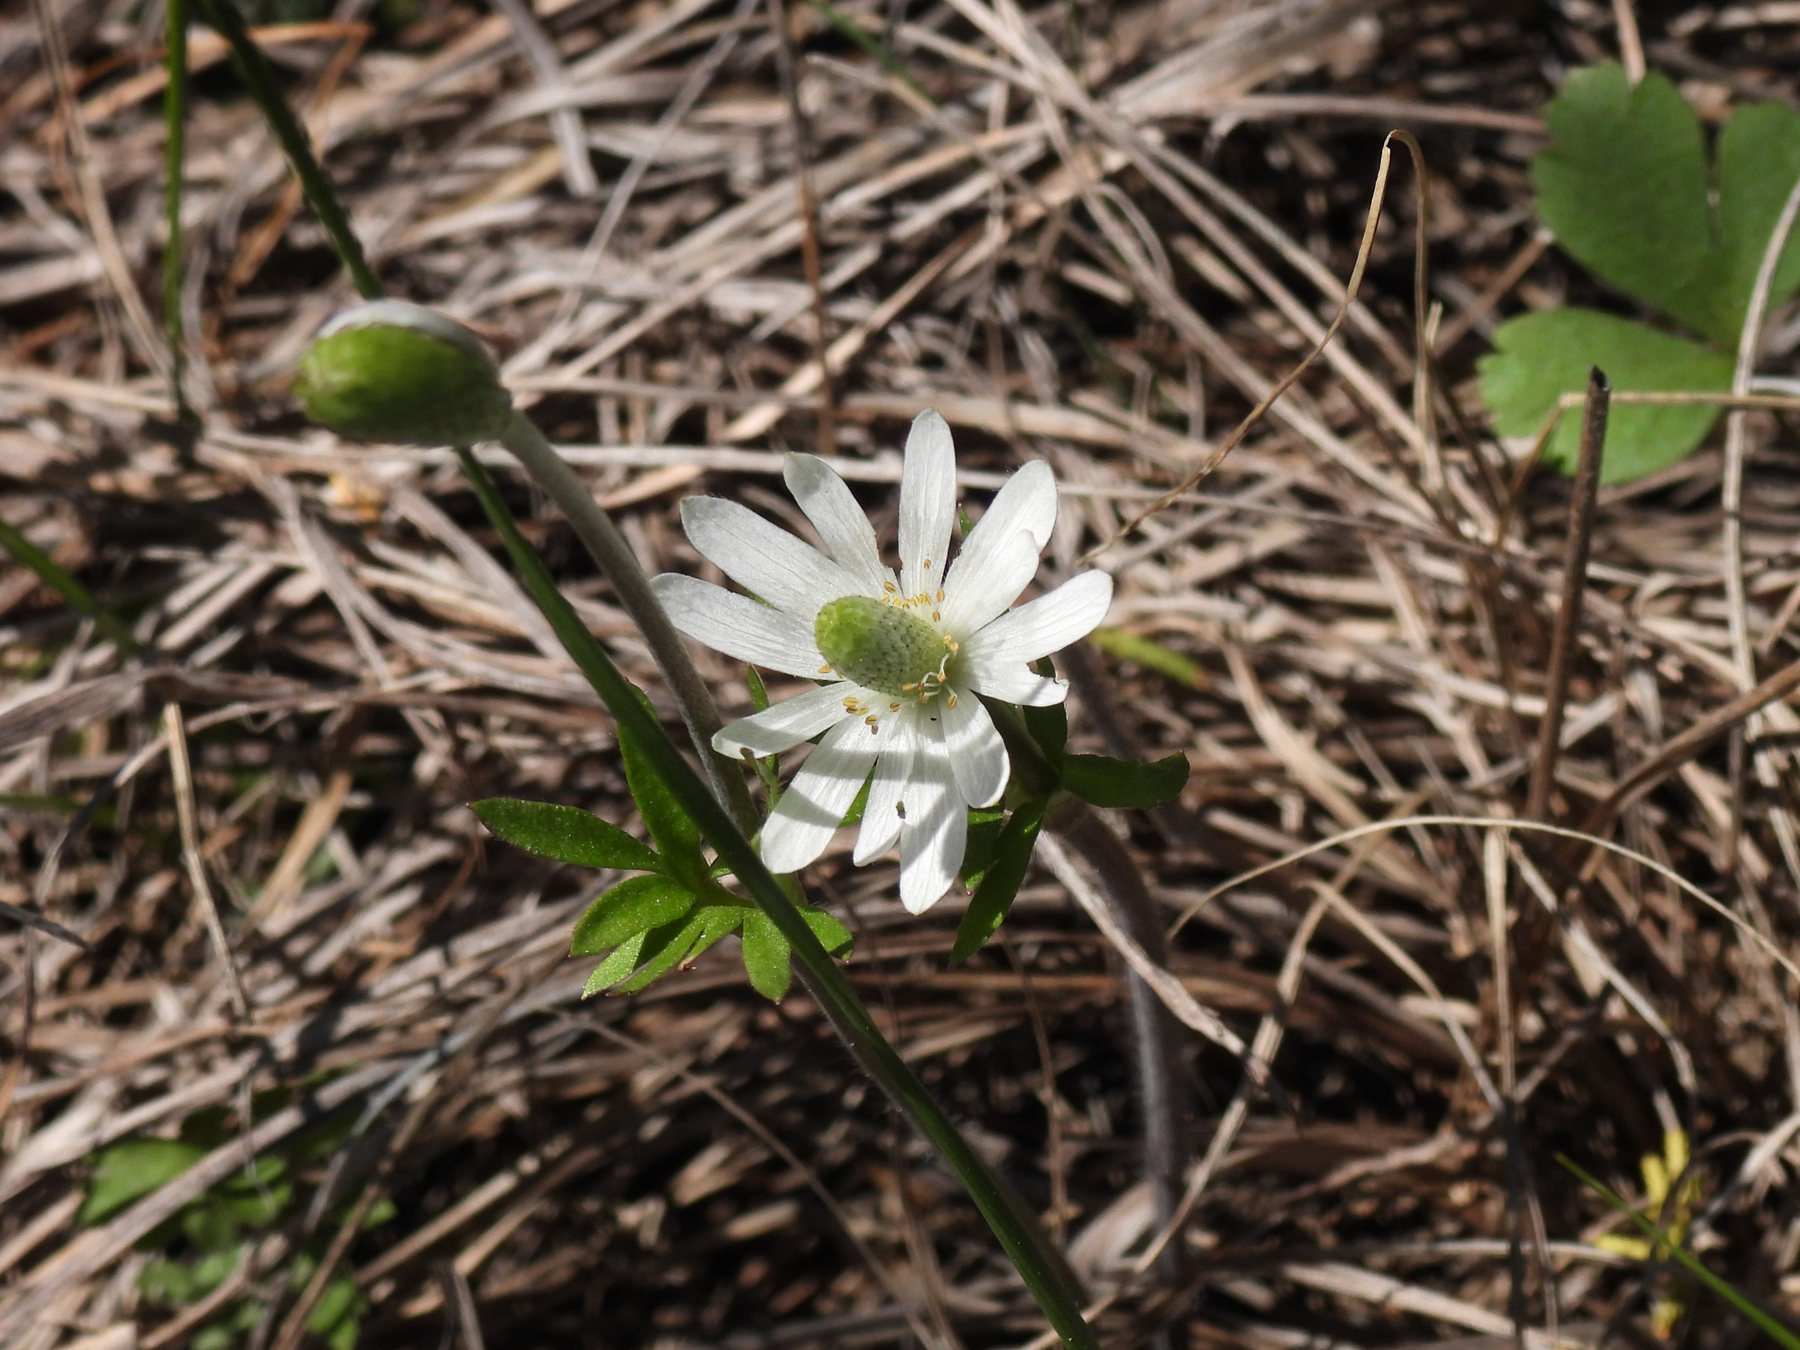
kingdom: Plantae
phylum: Tracheophyta
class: Magnoliopsida
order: Ranunculales
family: Ranunculaceae
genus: Anemone
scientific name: Anemone berlandieri
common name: Ten-petal anemone
